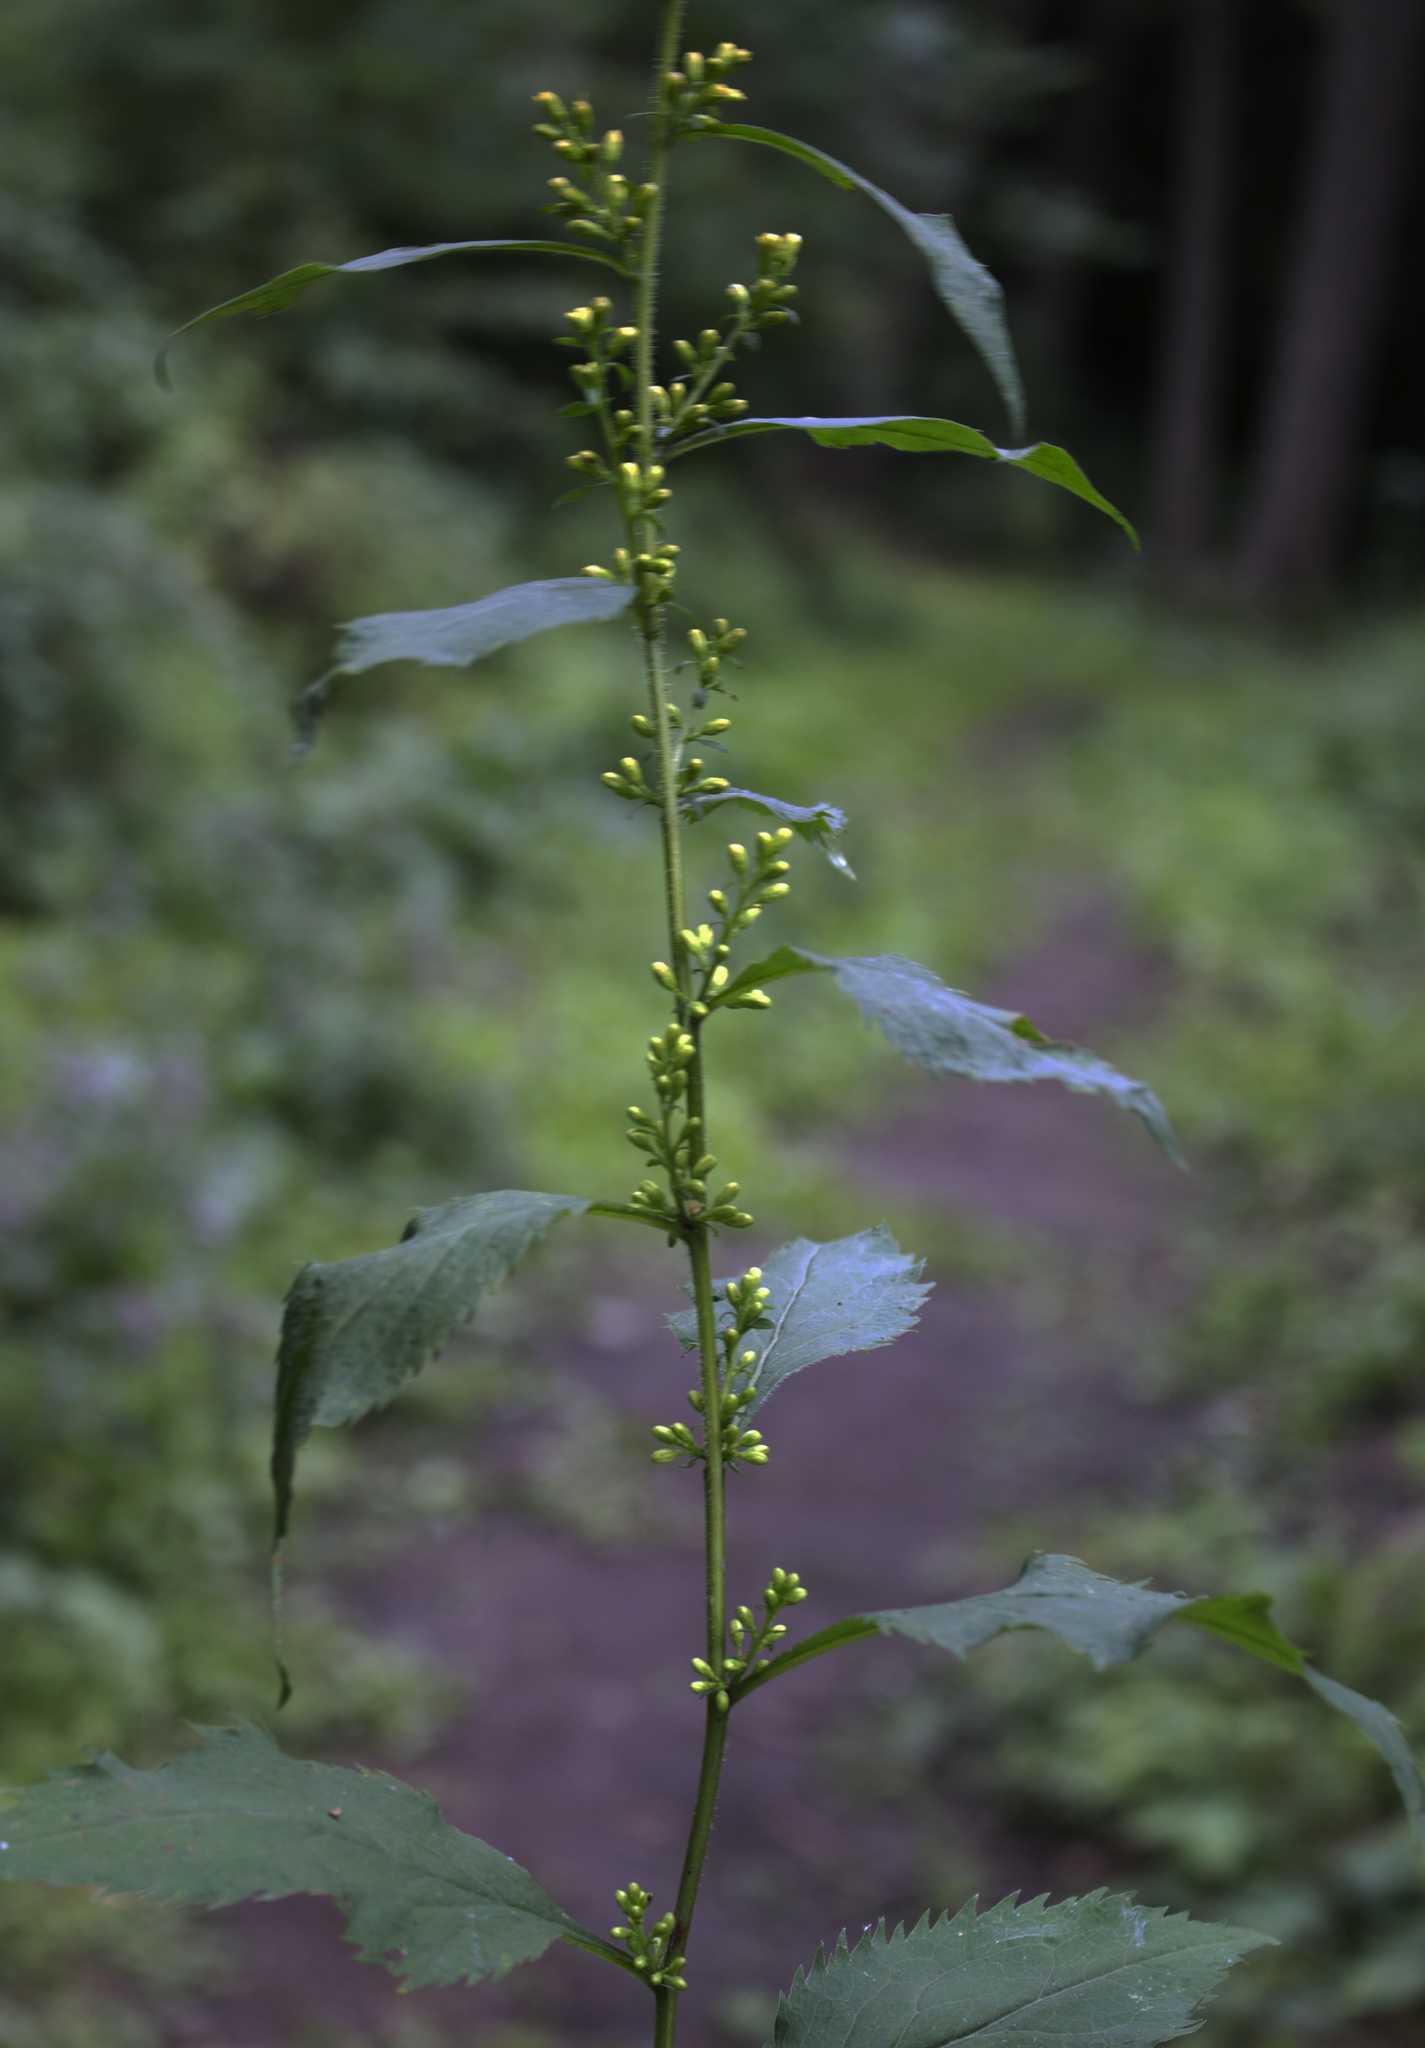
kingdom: Plantae
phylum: Tracheophyta
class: Magnoliopsida
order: Asterales
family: Asteraceae
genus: Solidago
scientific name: Solidago flexicaulis
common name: Zig-zag goldenrod
